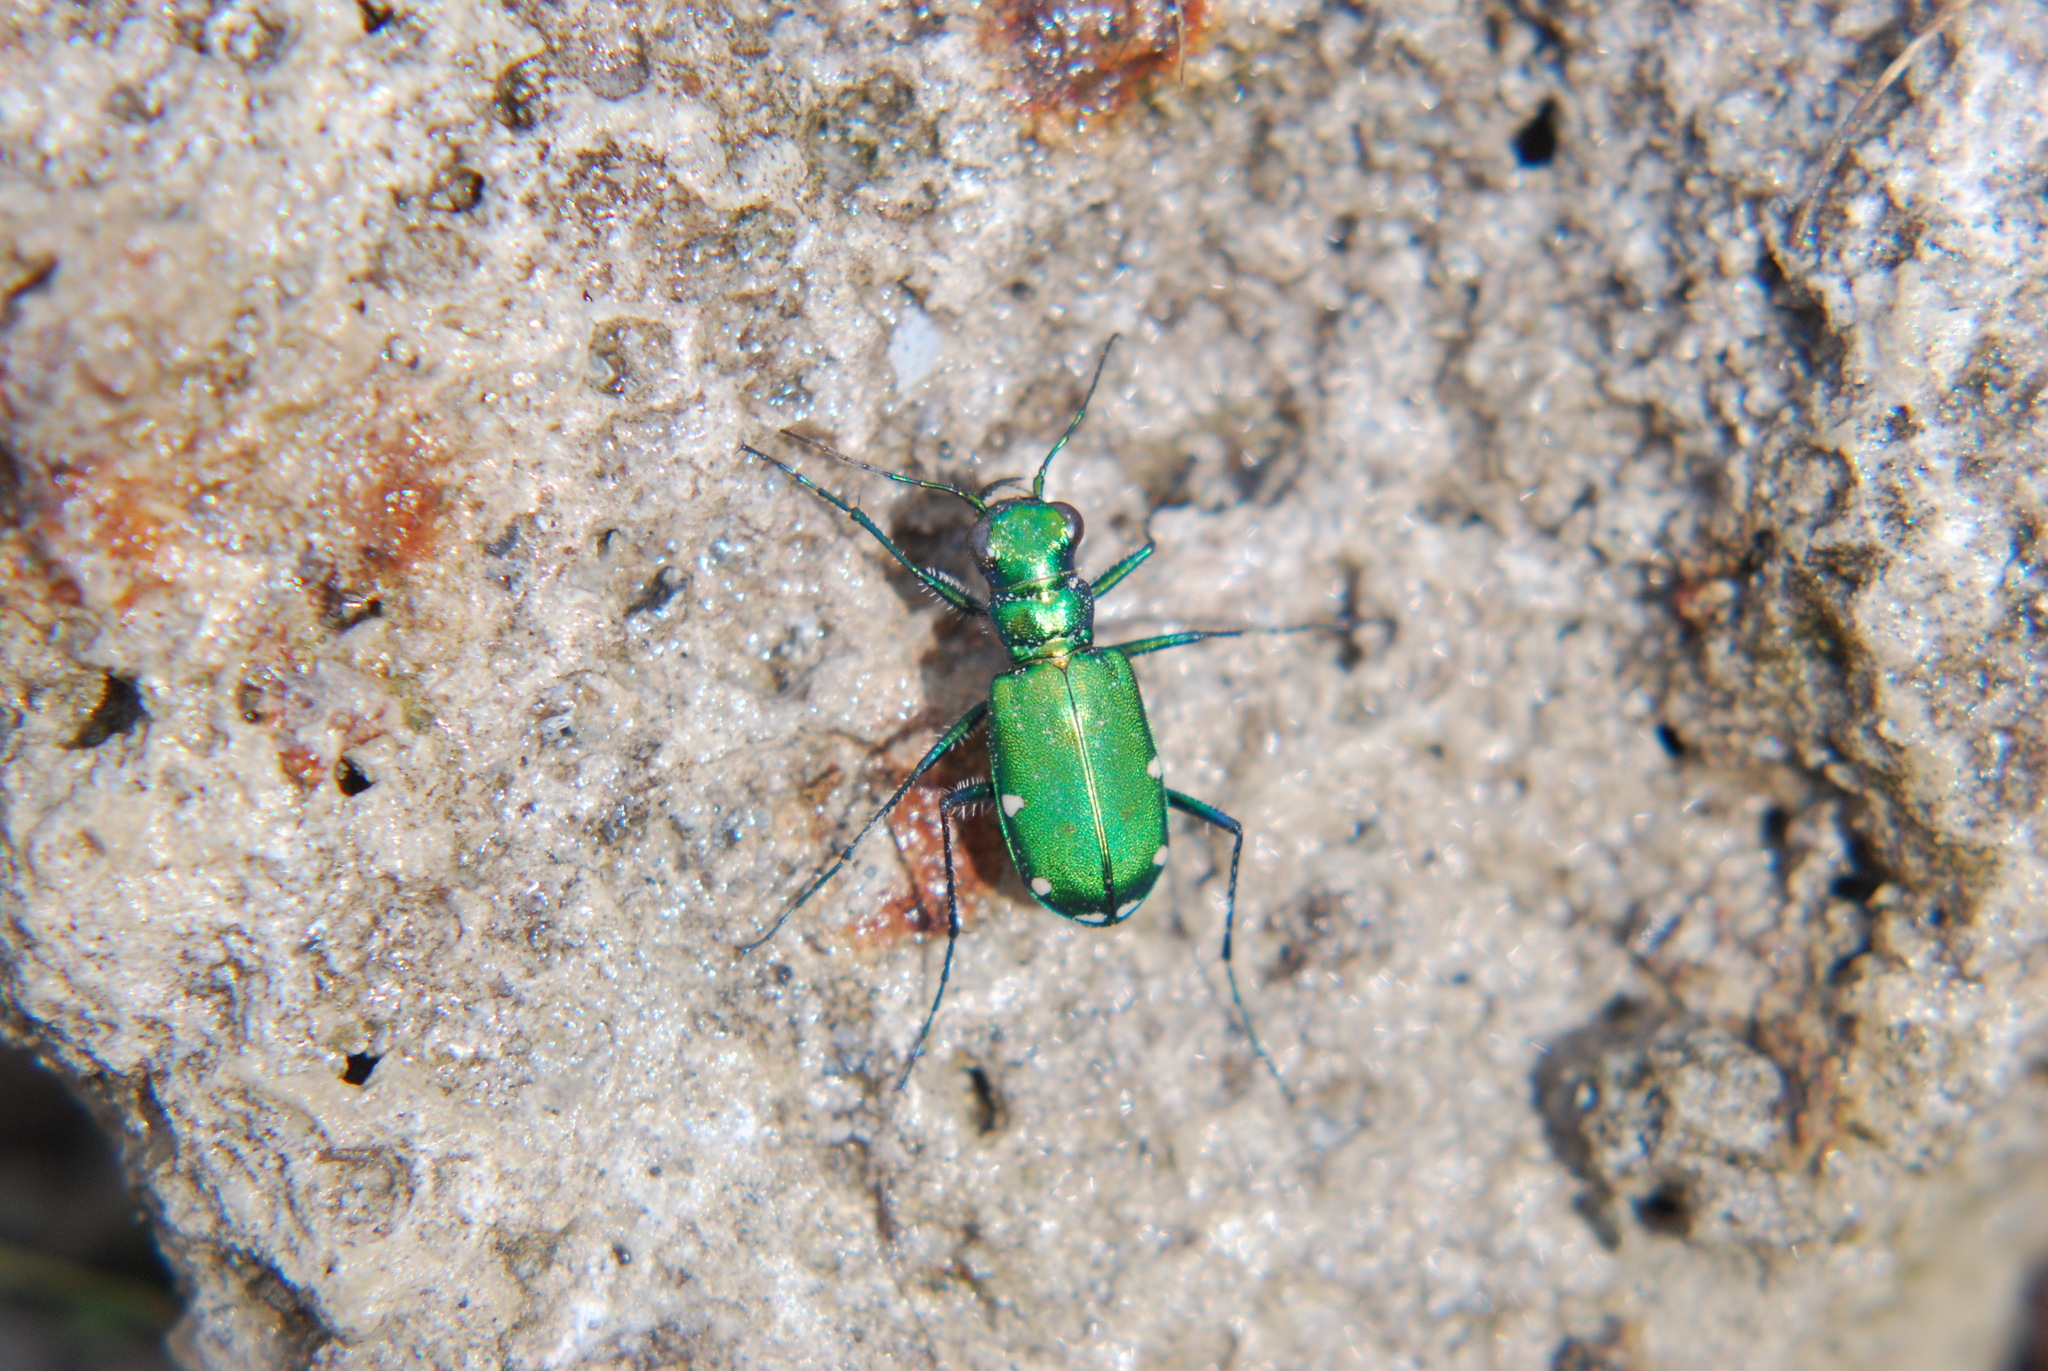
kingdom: Animalia
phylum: Arthropoda
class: Insecta
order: Coleoptera
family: Carabidae
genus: Cicindela
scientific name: Cicindela sexguttata
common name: Six-spotted tiger beetle
